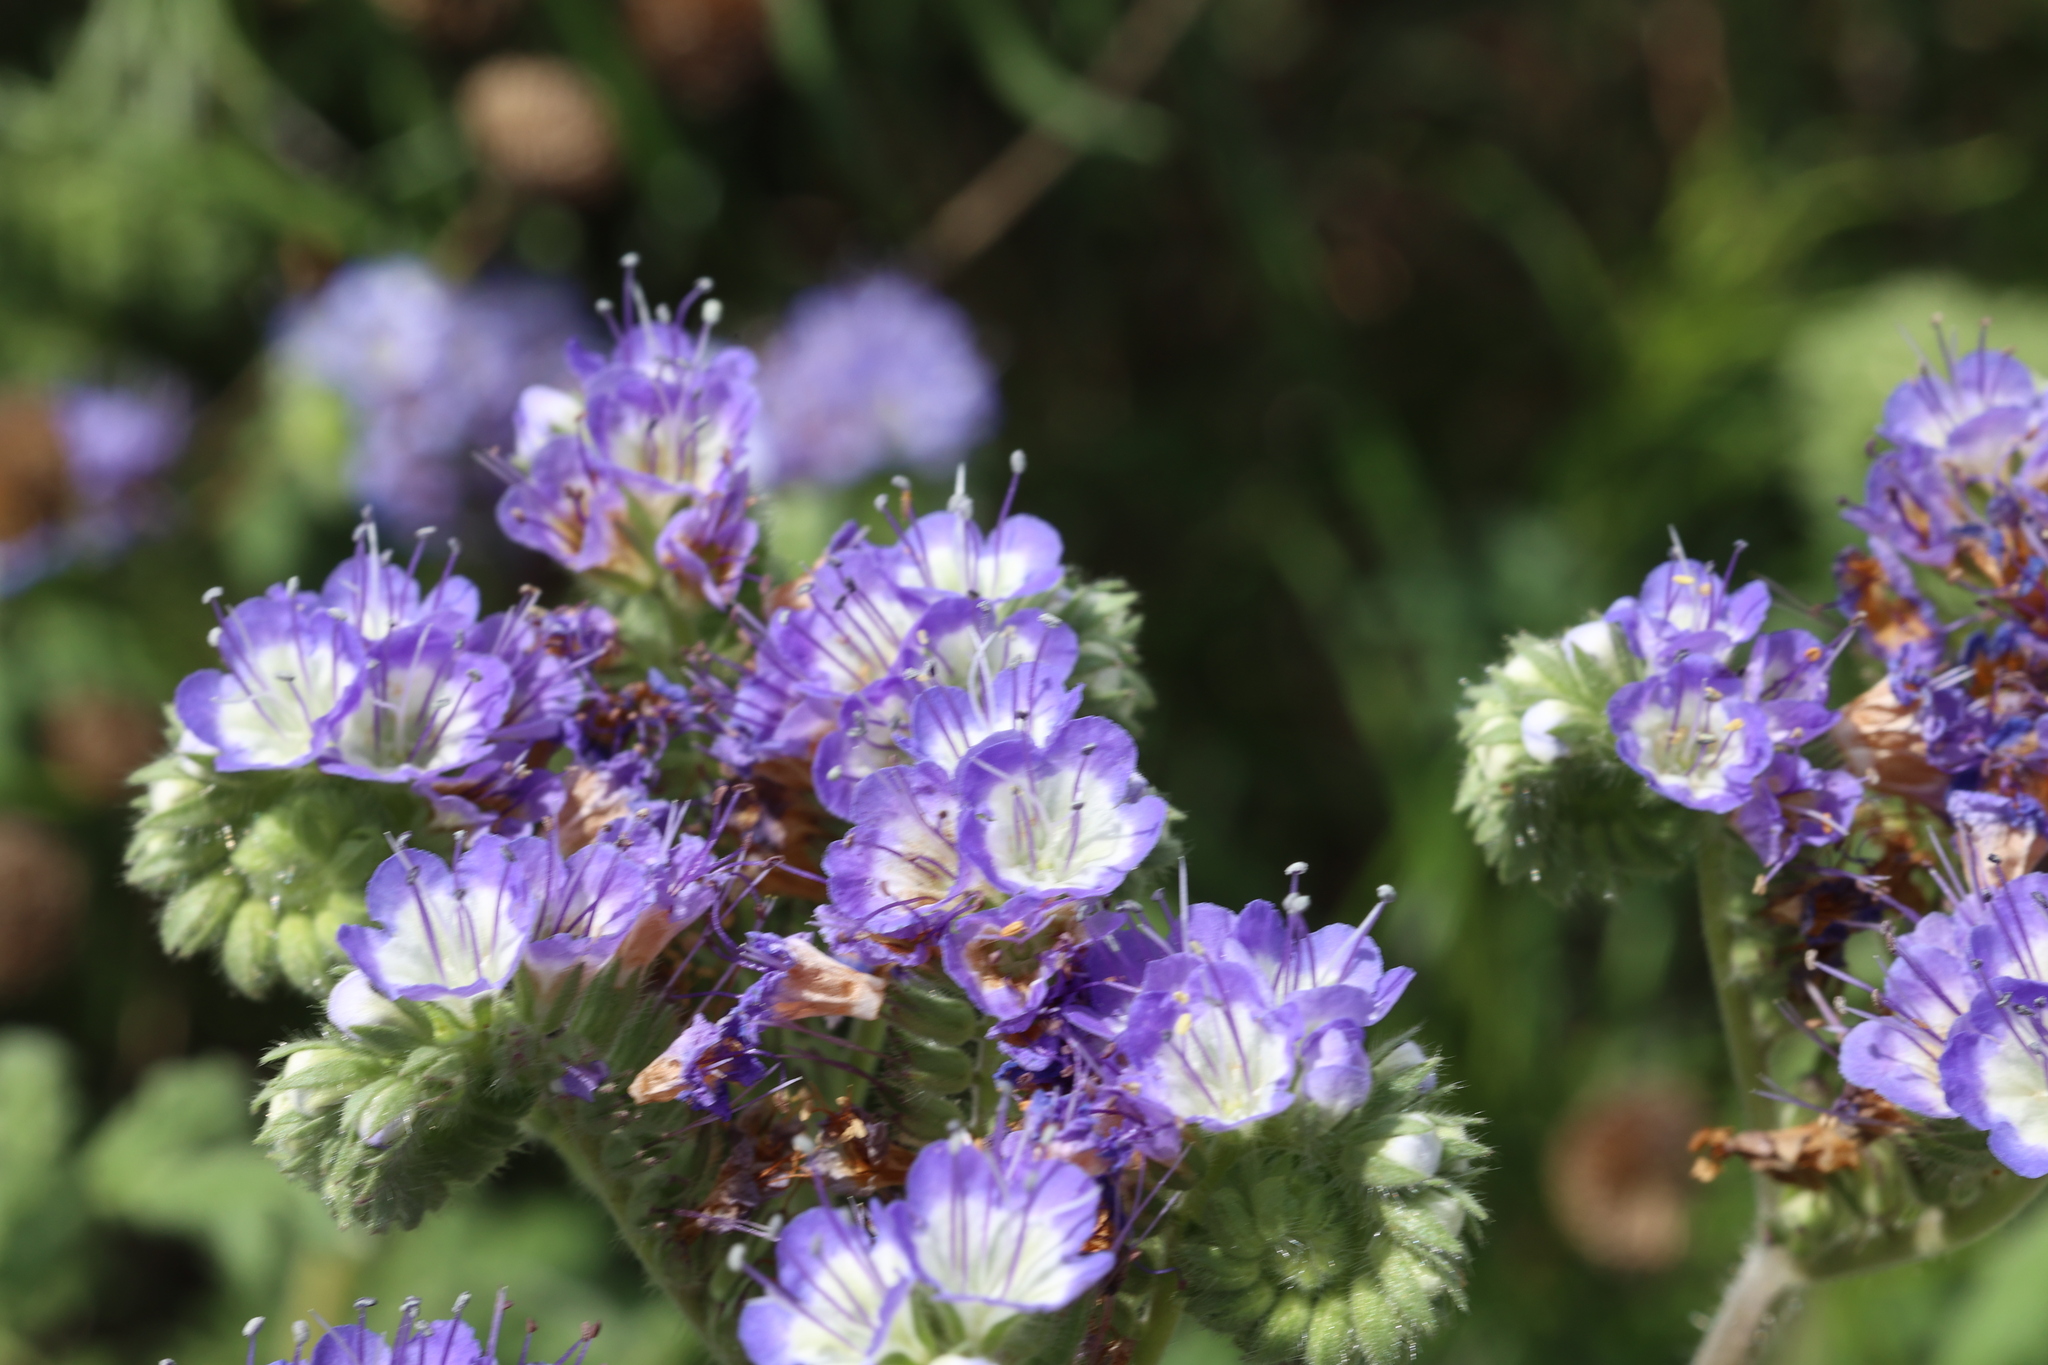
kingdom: Plantae
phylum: Tracheophyta
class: Magnoliopsida
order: Boraginales
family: Hydrophyllaceae
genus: Phacelia
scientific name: Phacelia congesta
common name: Blue curls
